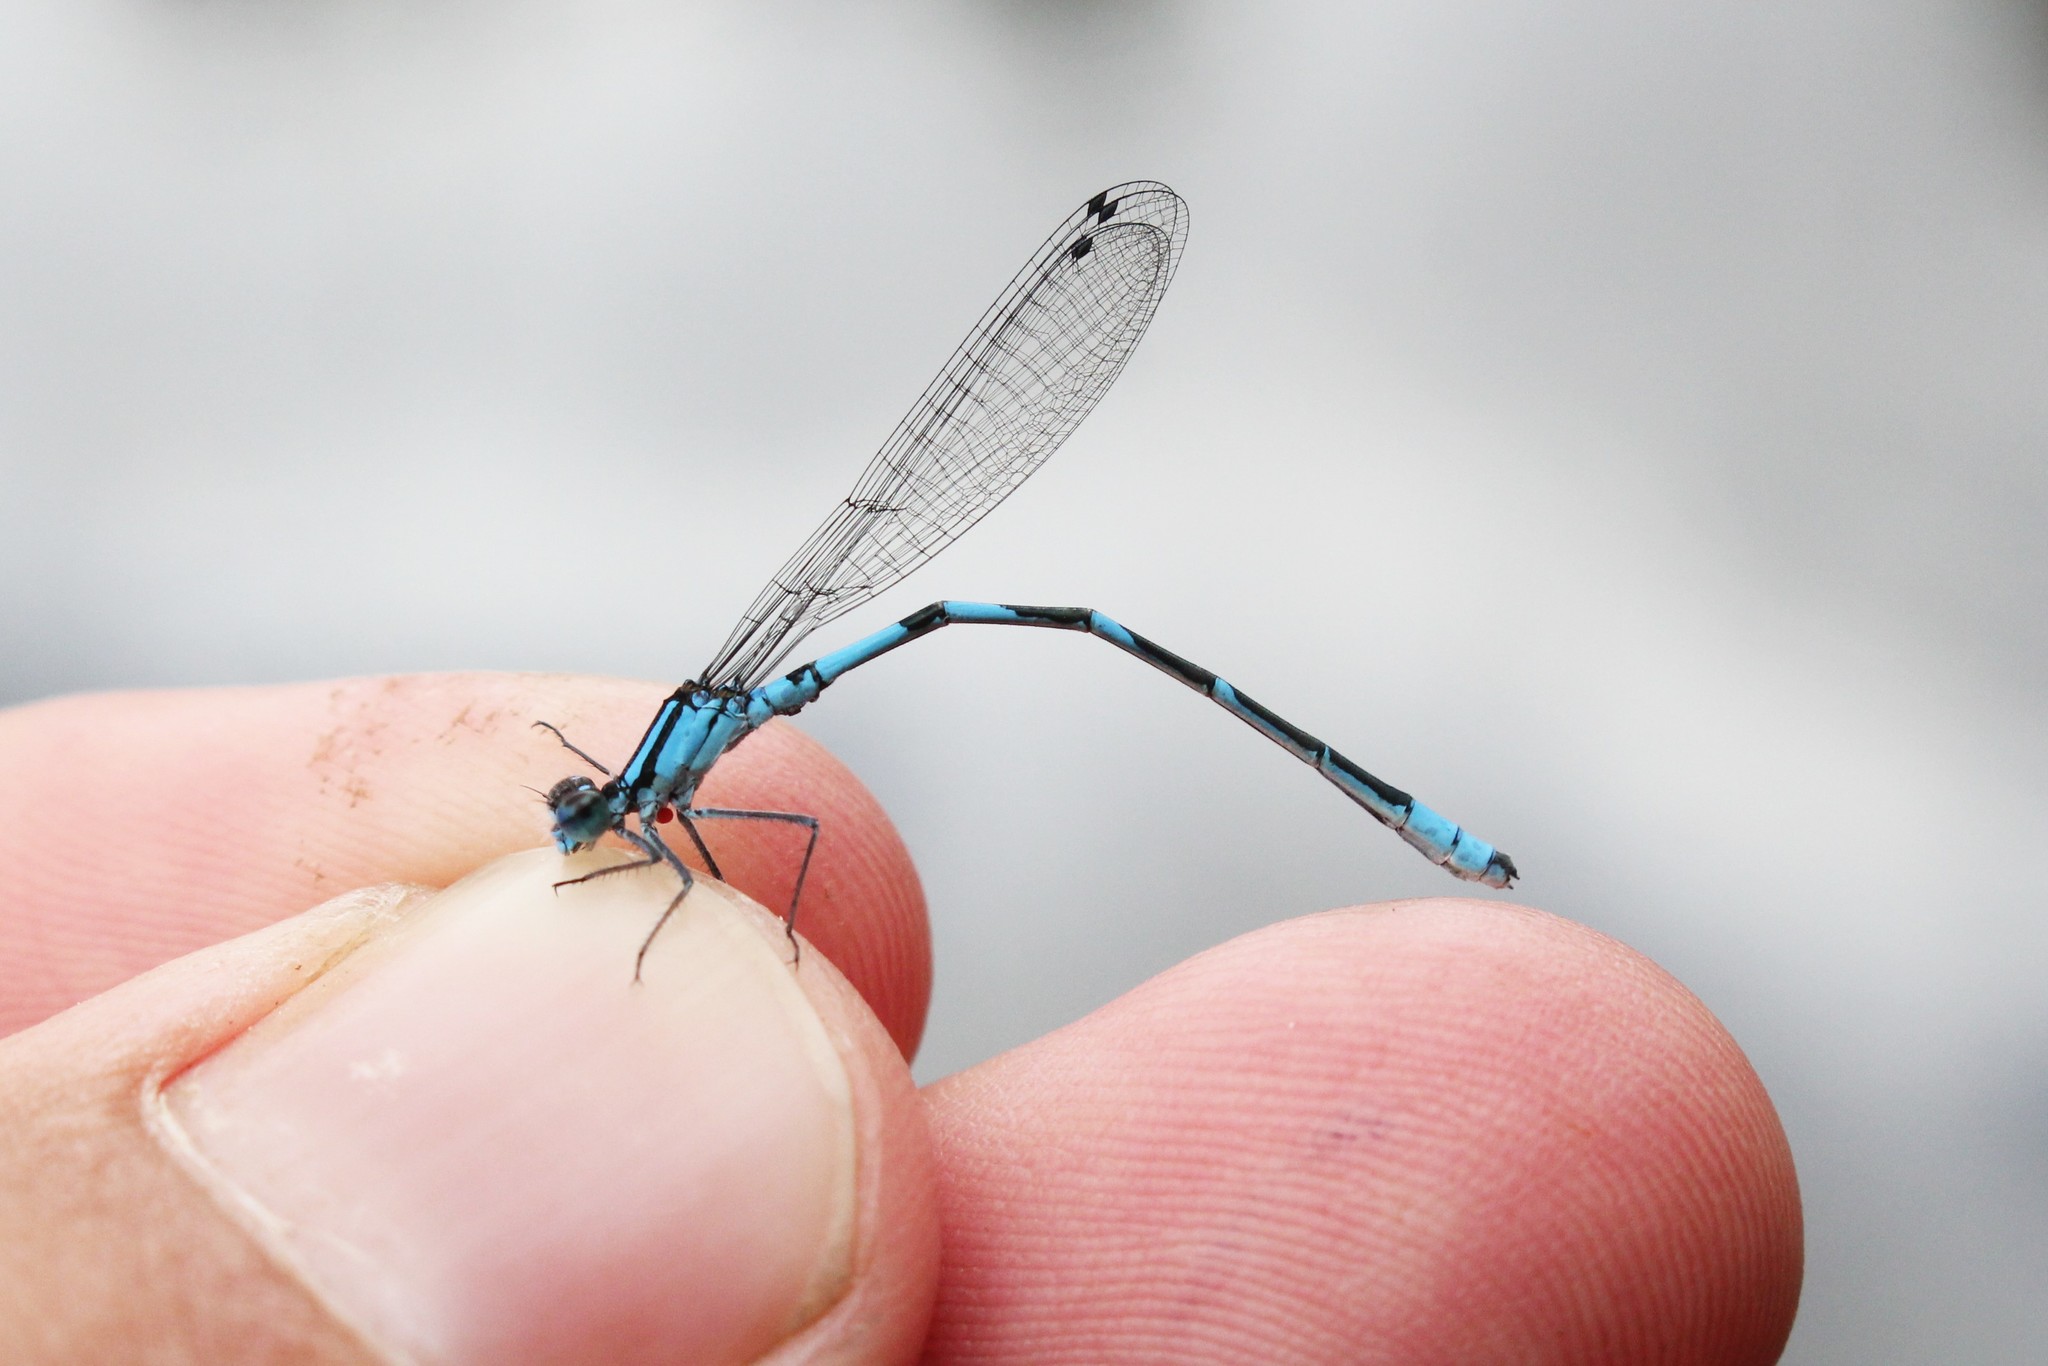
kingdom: Animalia
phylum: Arthropoda
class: Insecta
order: Odonata
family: Coenagrionidae
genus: Enallagma
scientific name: Enallagma hageni
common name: Hagen's bluet
